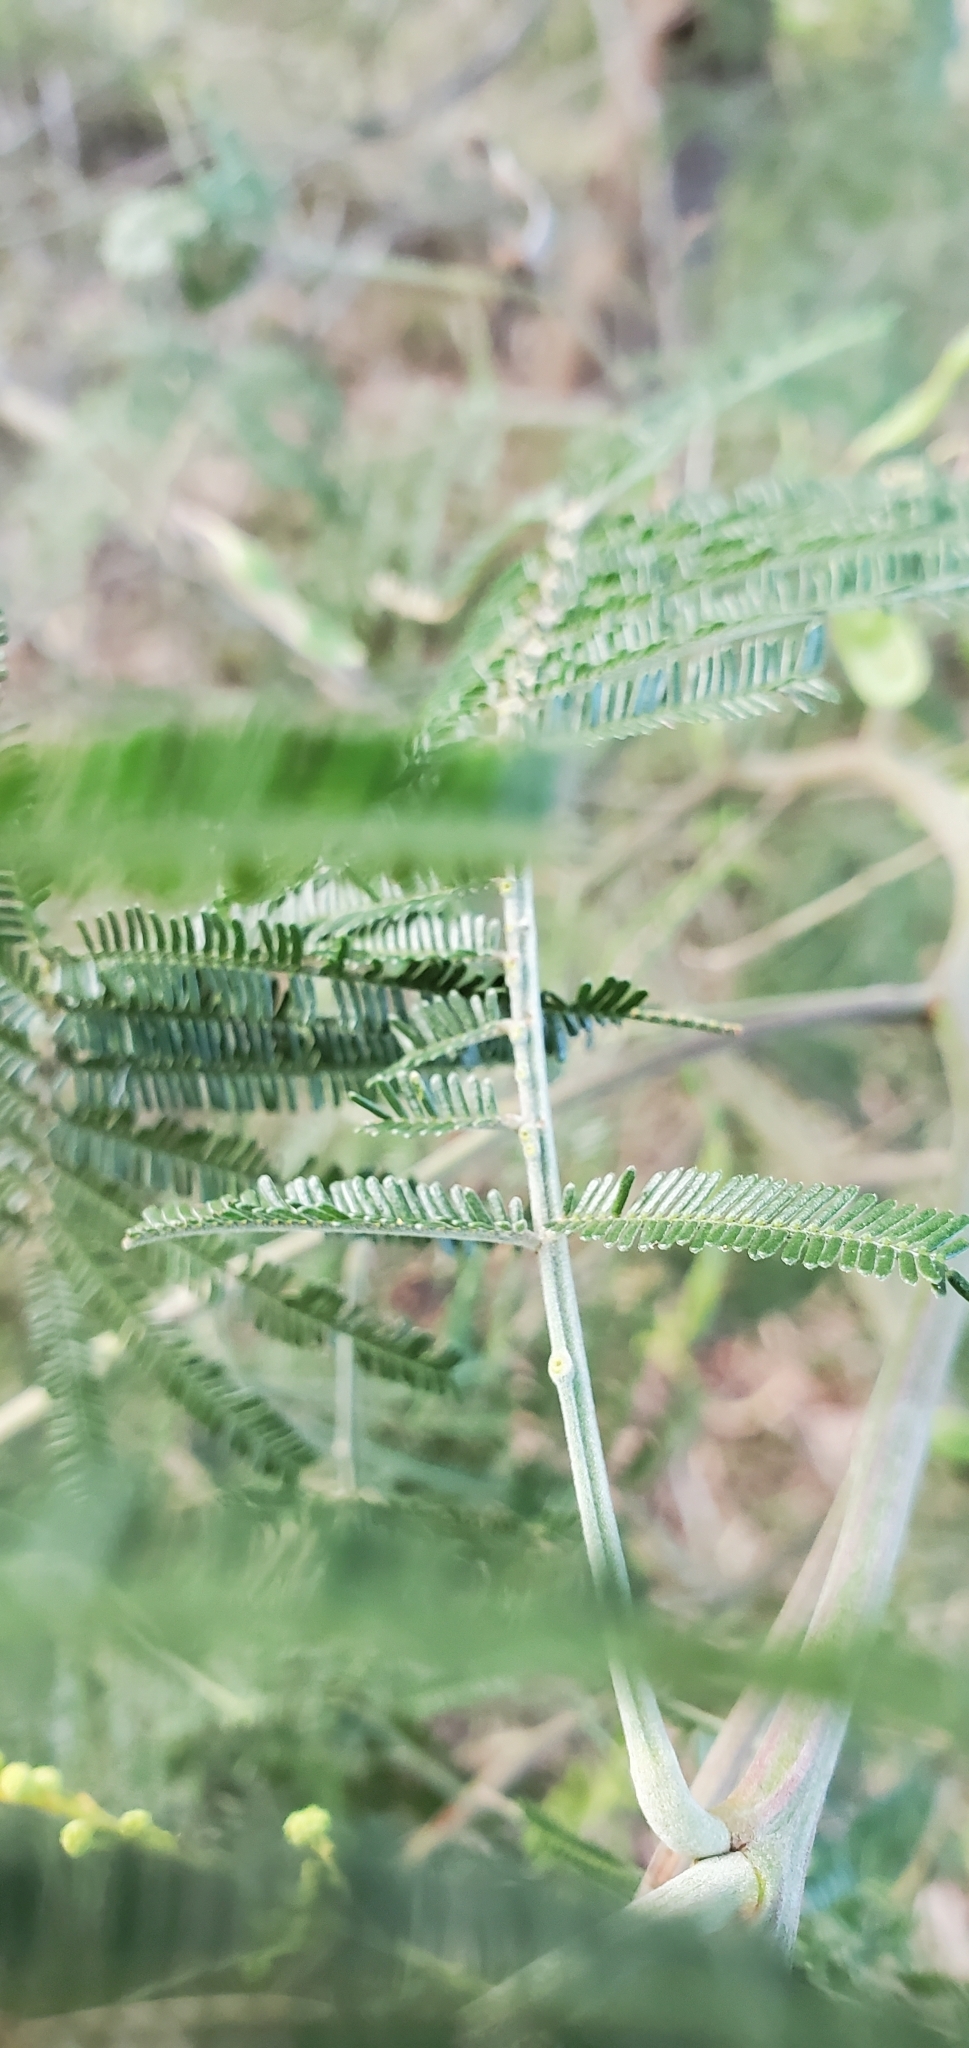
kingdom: Plantae
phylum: Tracheophyta
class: Magnoliopsida
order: Fabales
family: Fabaceae
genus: Acacia
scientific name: Acacia mearnsii
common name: Black wattle
